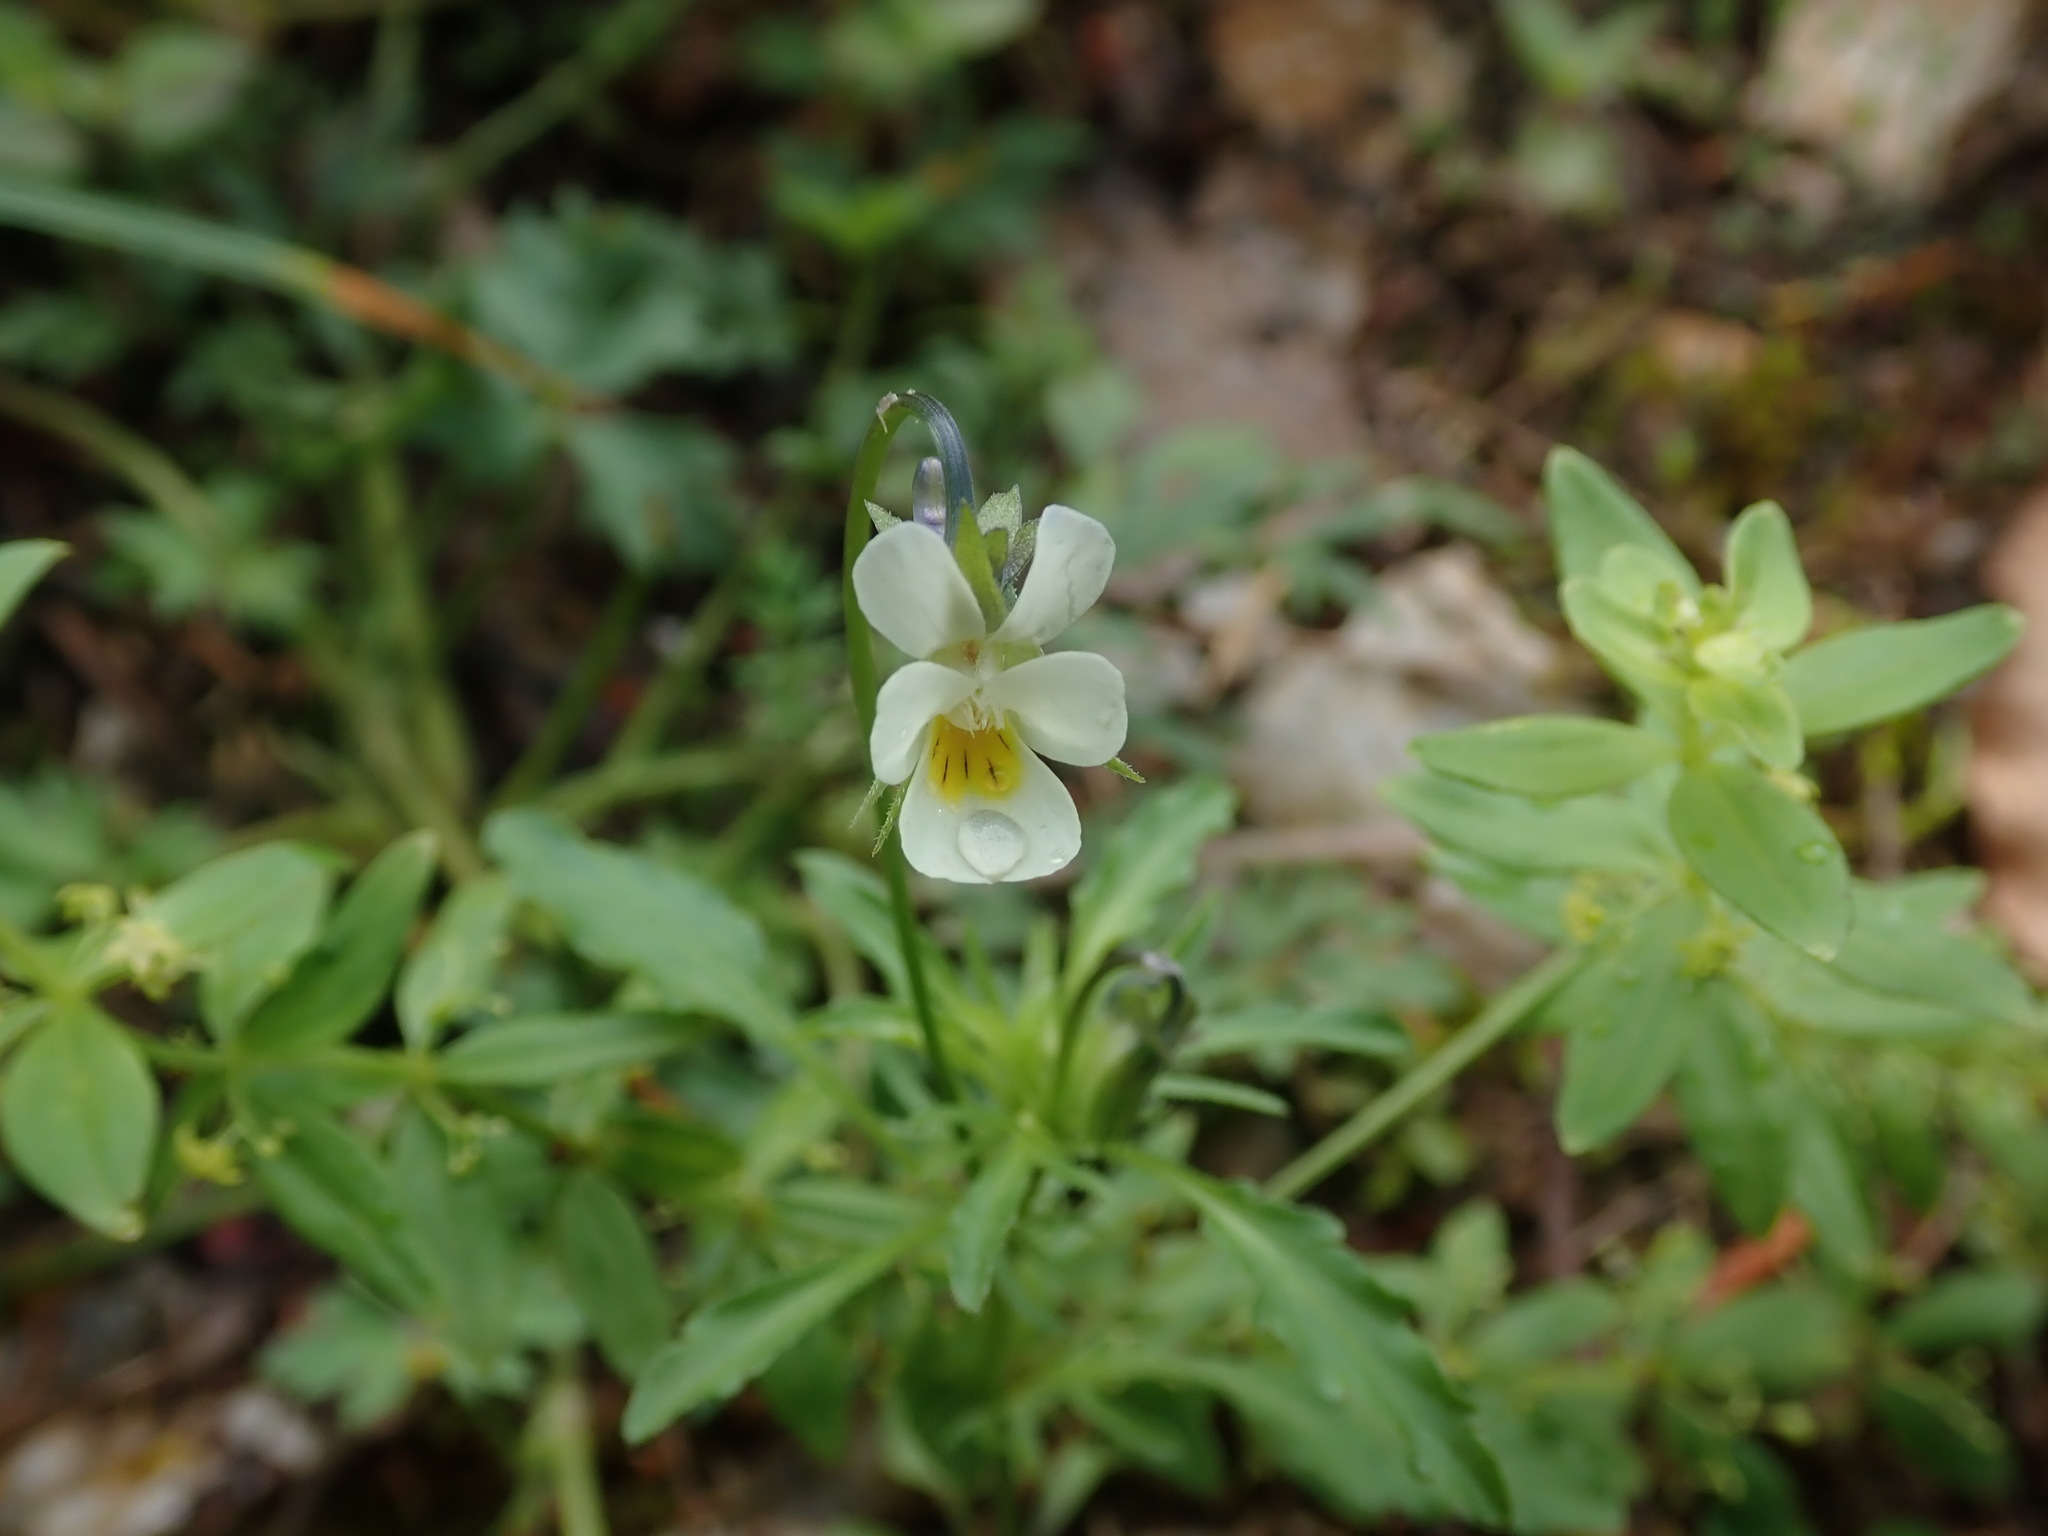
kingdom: Plantae
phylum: Tracheophyta
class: Magnoliopsida
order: Malpighiales
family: Violaceae
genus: Viola
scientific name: Viola arvensis
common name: Field pansy
